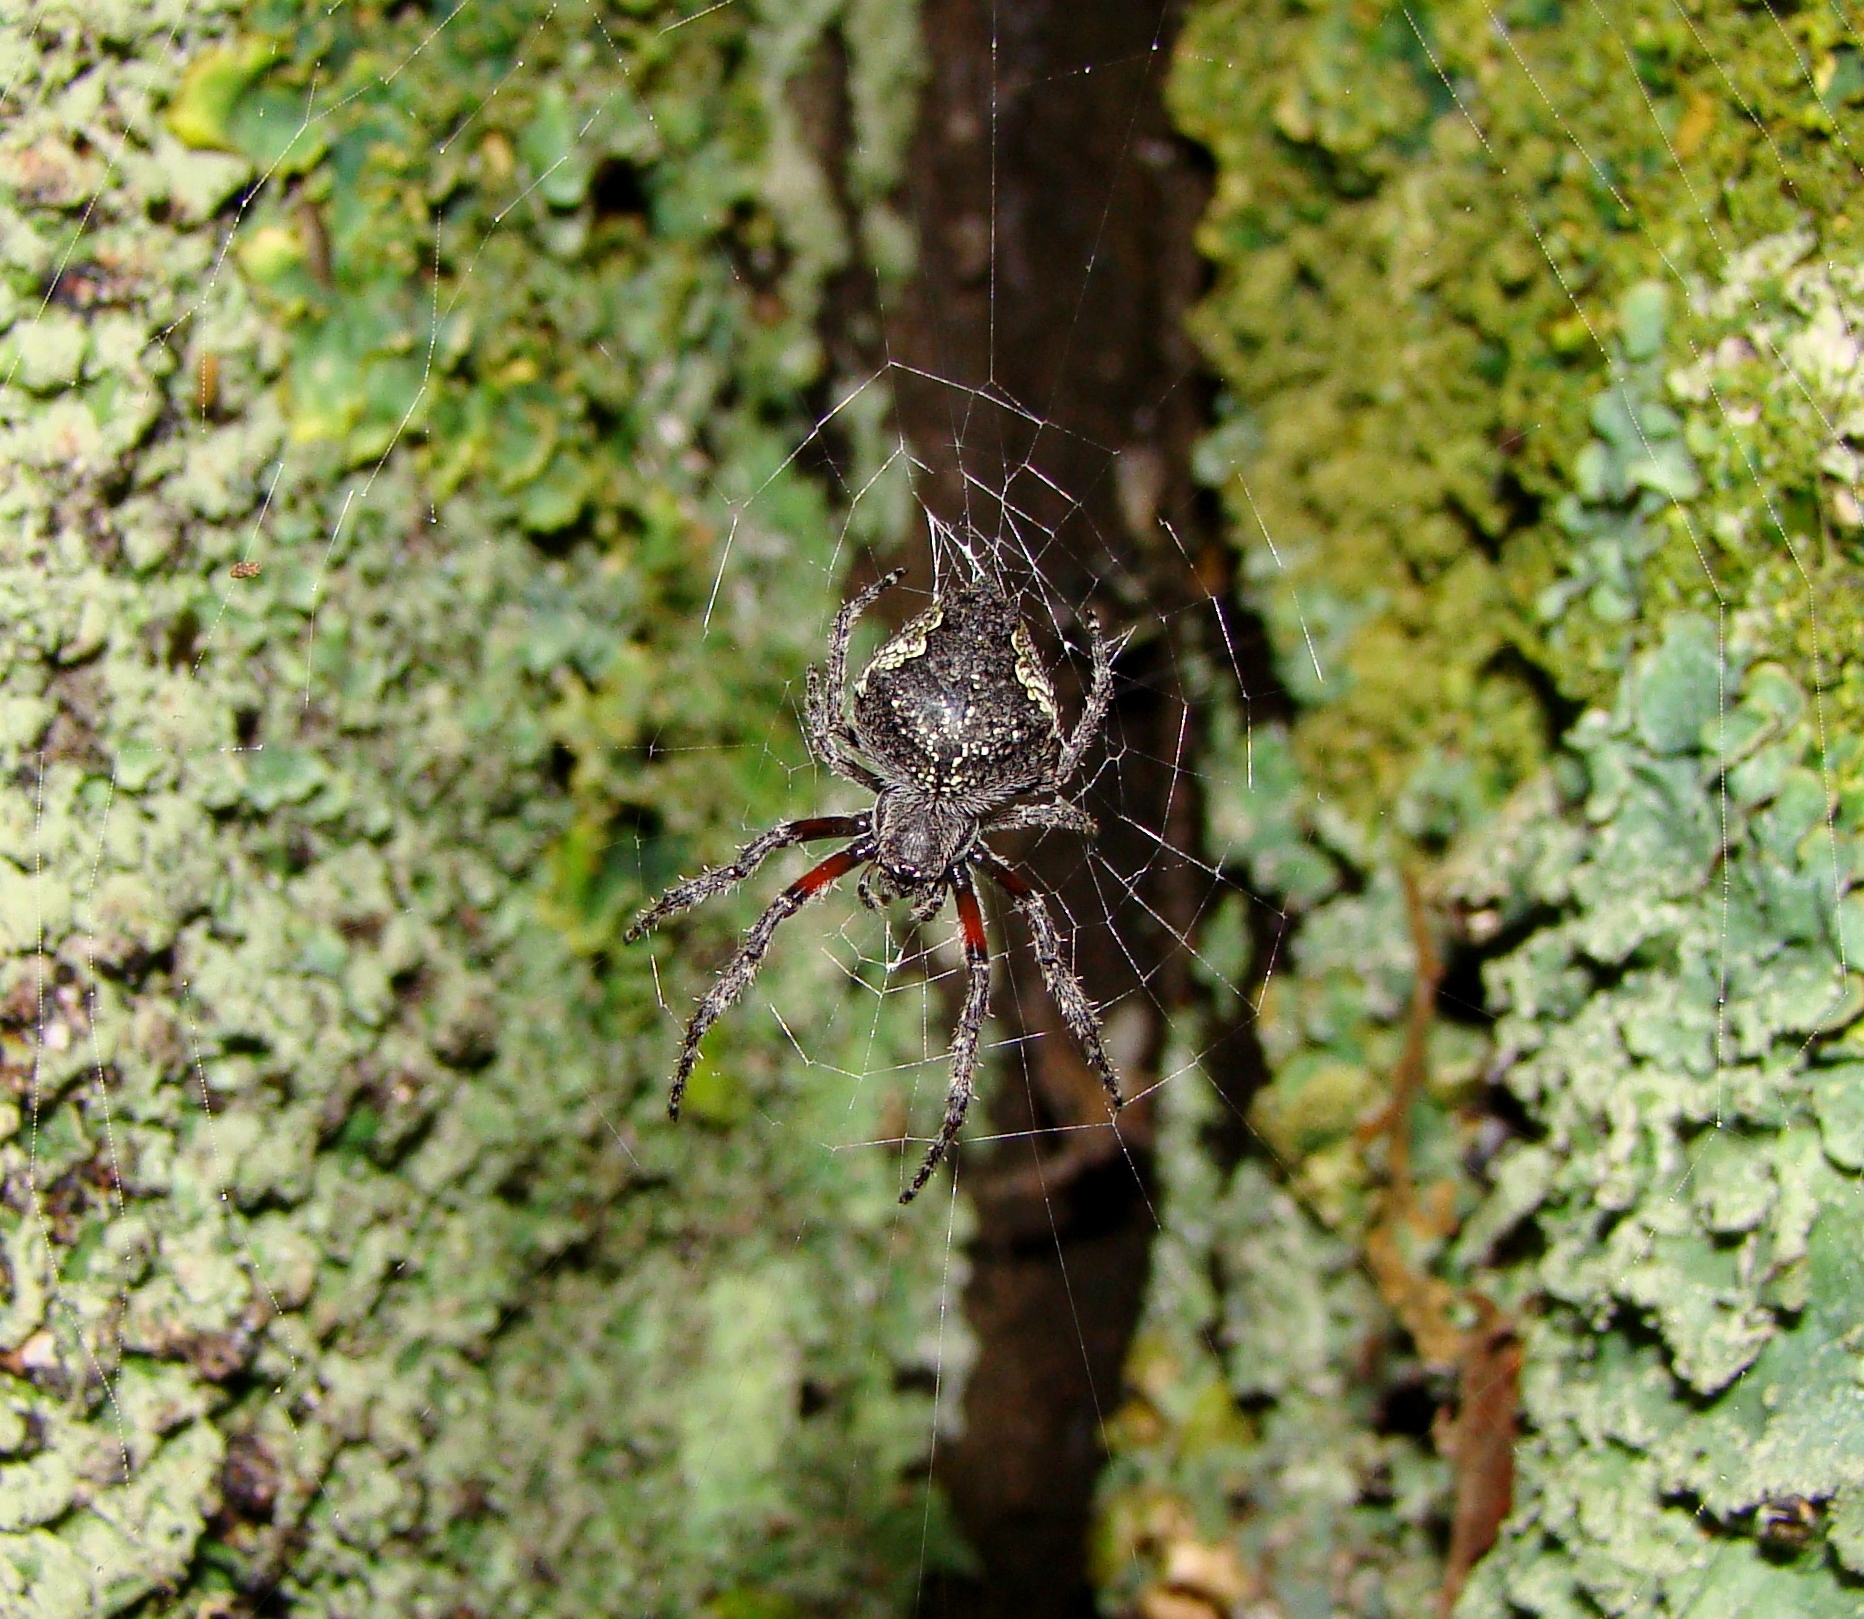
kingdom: Animalia
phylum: Arthropoda
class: Arachnida
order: Araneae
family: Araneidae
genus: Eriophora
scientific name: Eriophora pustulosa
